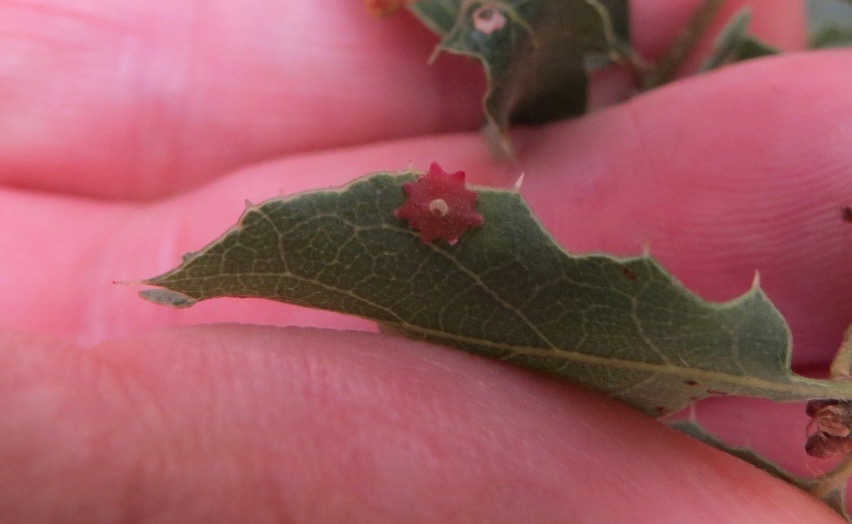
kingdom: Animalia
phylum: Arthropoda
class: Insecta
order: Hymenoptera
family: Cynipidae
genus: Andricus
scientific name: Andricus
